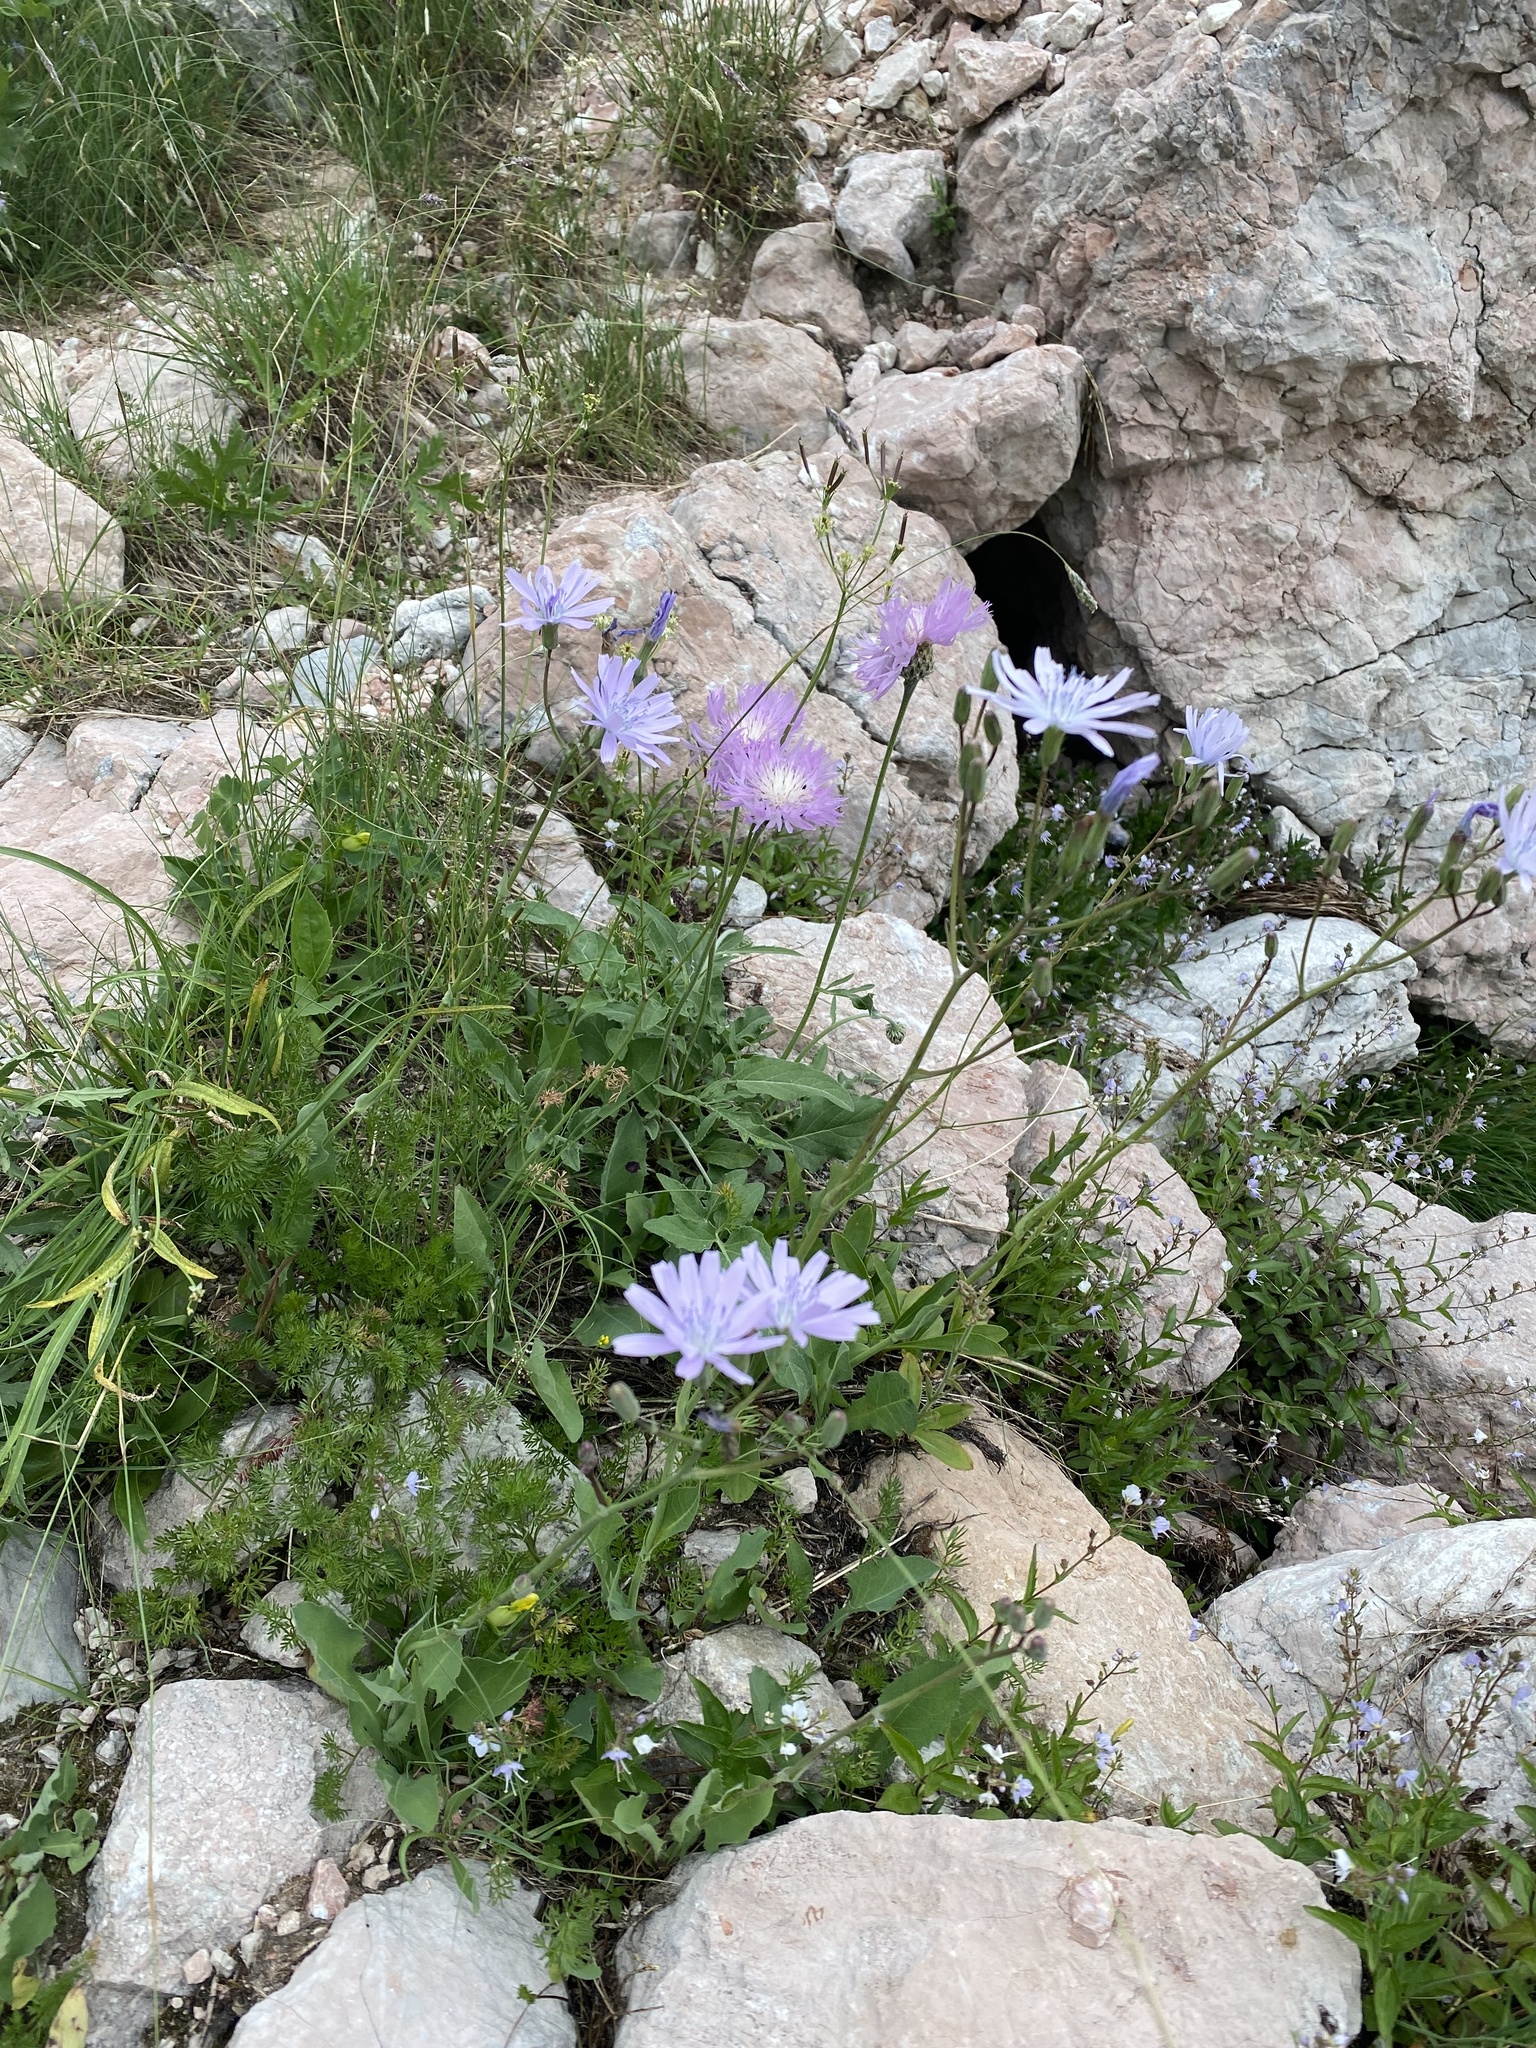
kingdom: Plantae
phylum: Tracheophyta
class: Magnoliopsida
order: Asterales
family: Asteraceae
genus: Lactuca
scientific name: Lactuca racemosa
